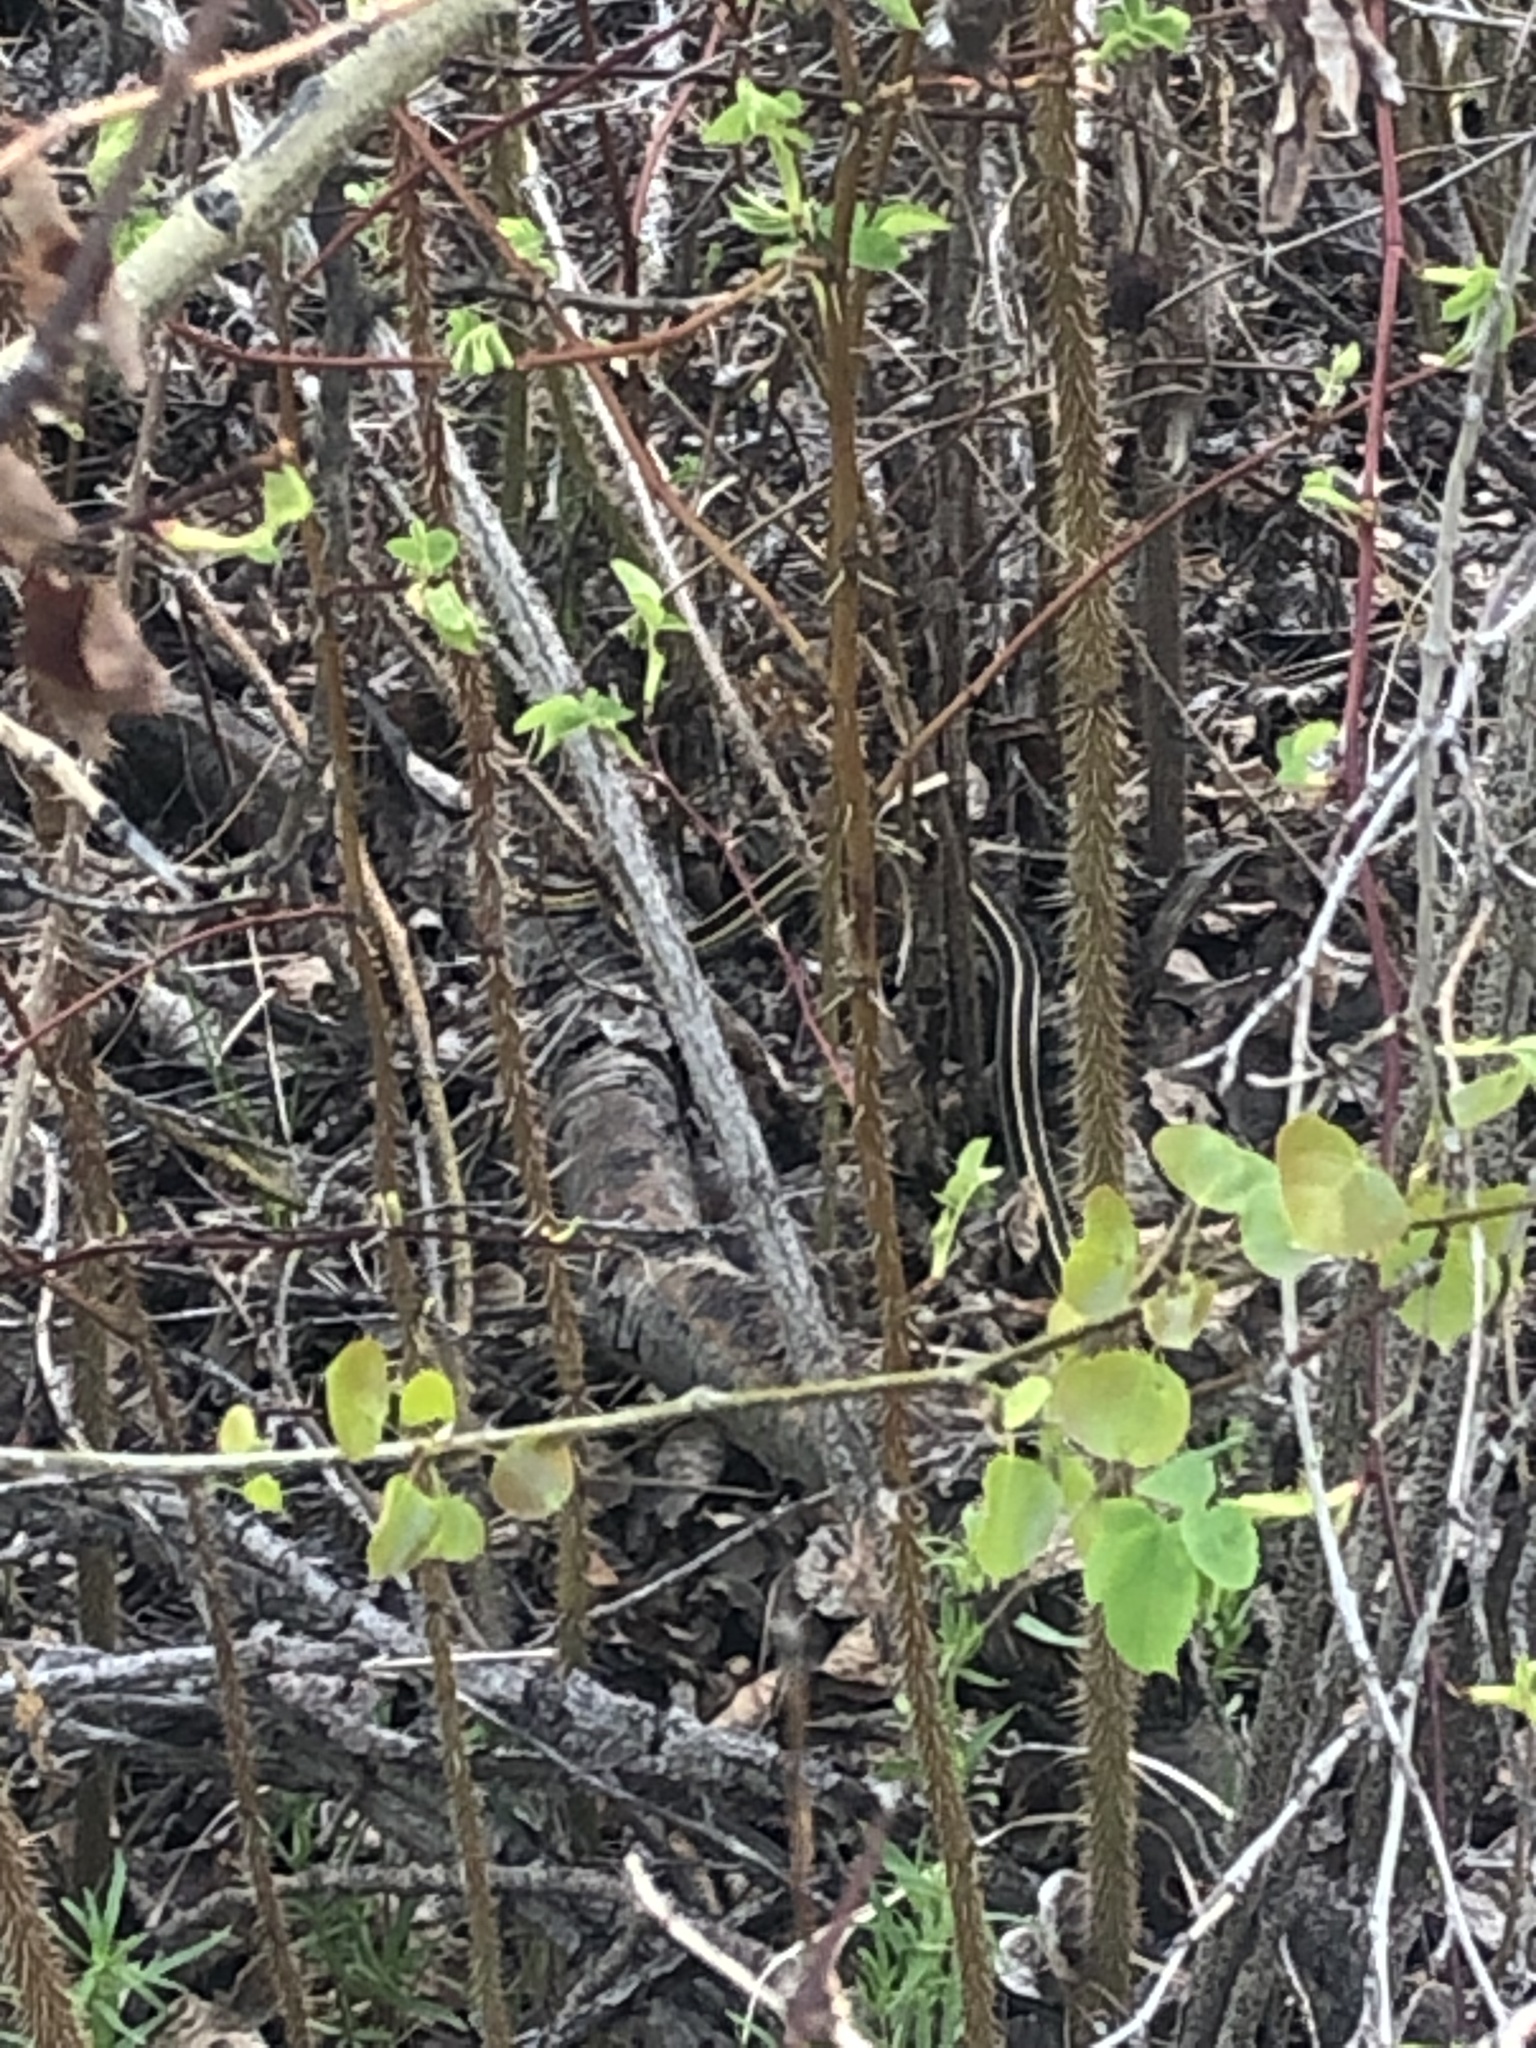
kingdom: Animalia
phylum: Chordata
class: Squamata
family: Colubridae
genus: Thamnophis
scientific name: Thamnophis sirtalis
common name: Common garter snake
